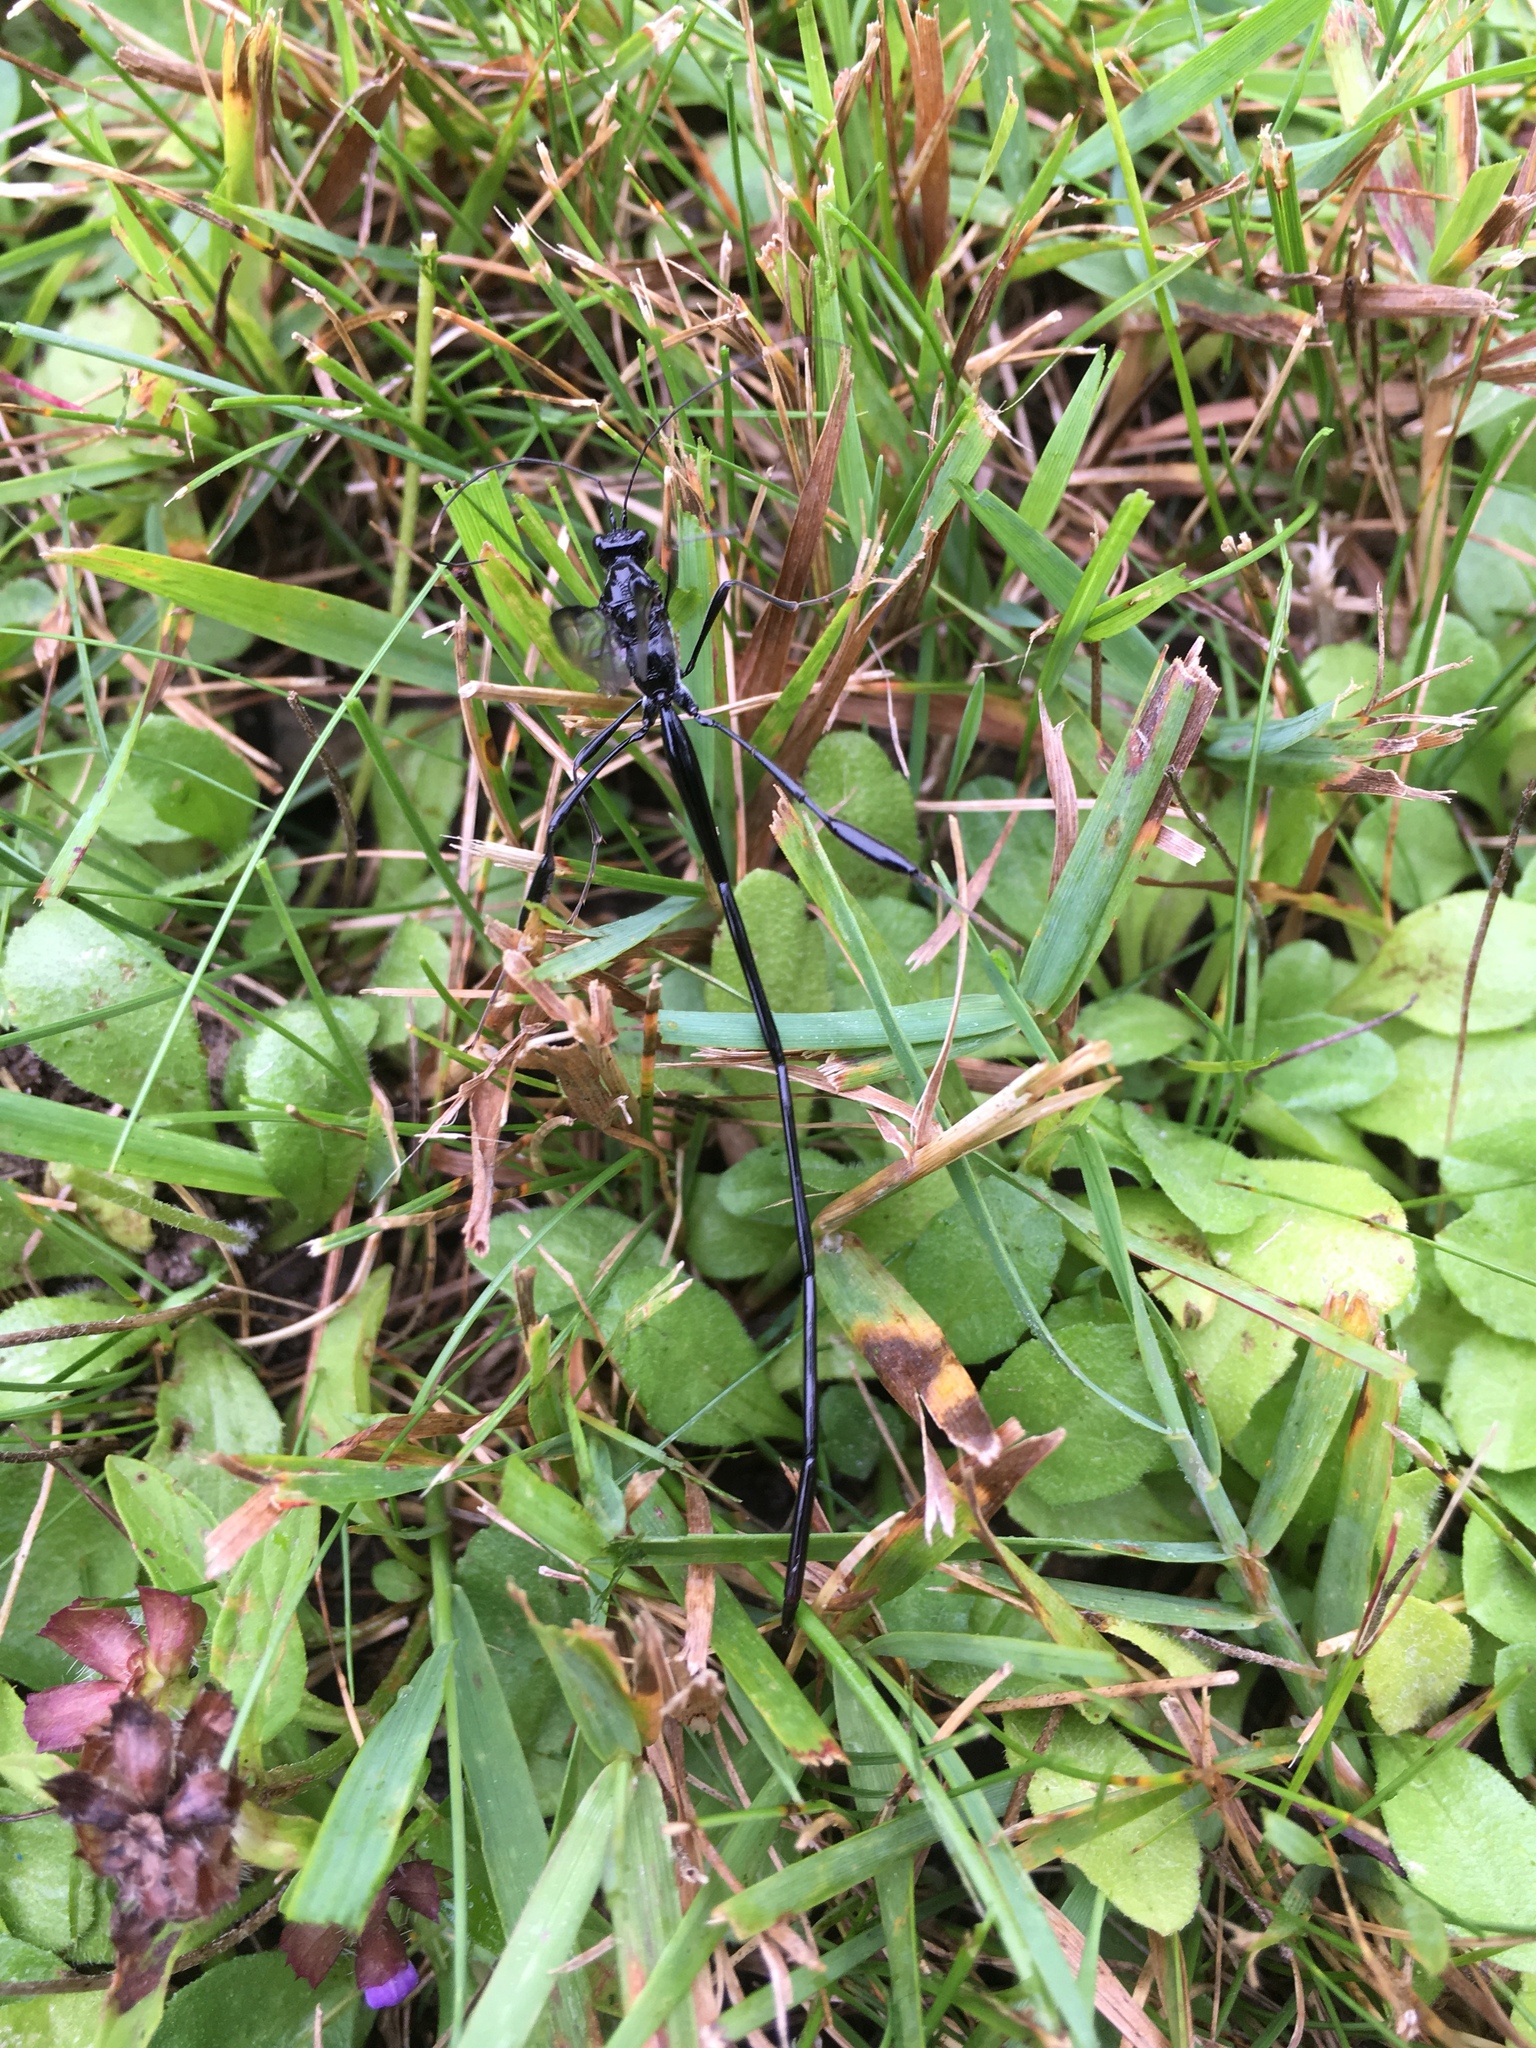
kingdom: Animalia
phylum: Arthropoda
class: Insecta
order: Hymenoptera
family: Pelecinidae
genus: Pelecinus
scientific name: Pelecinus polyturator
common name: American pelecinid wasp
